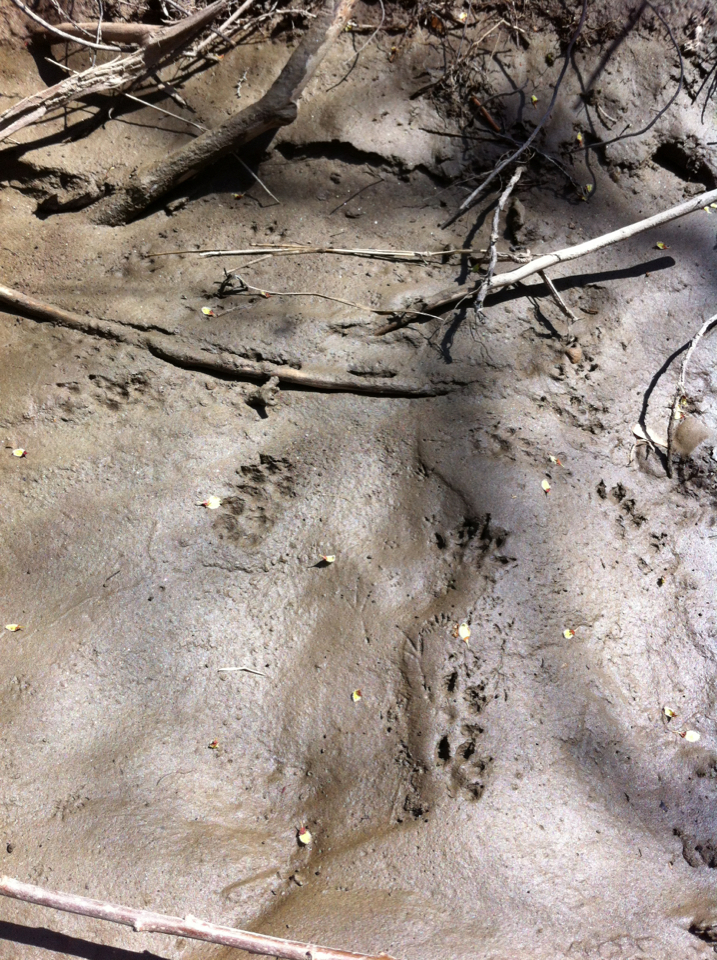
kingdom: Animalia
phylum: Chordata
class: Mammalia
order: Carnivora
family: Mustelidae
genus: Mustela
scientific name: Mustela
